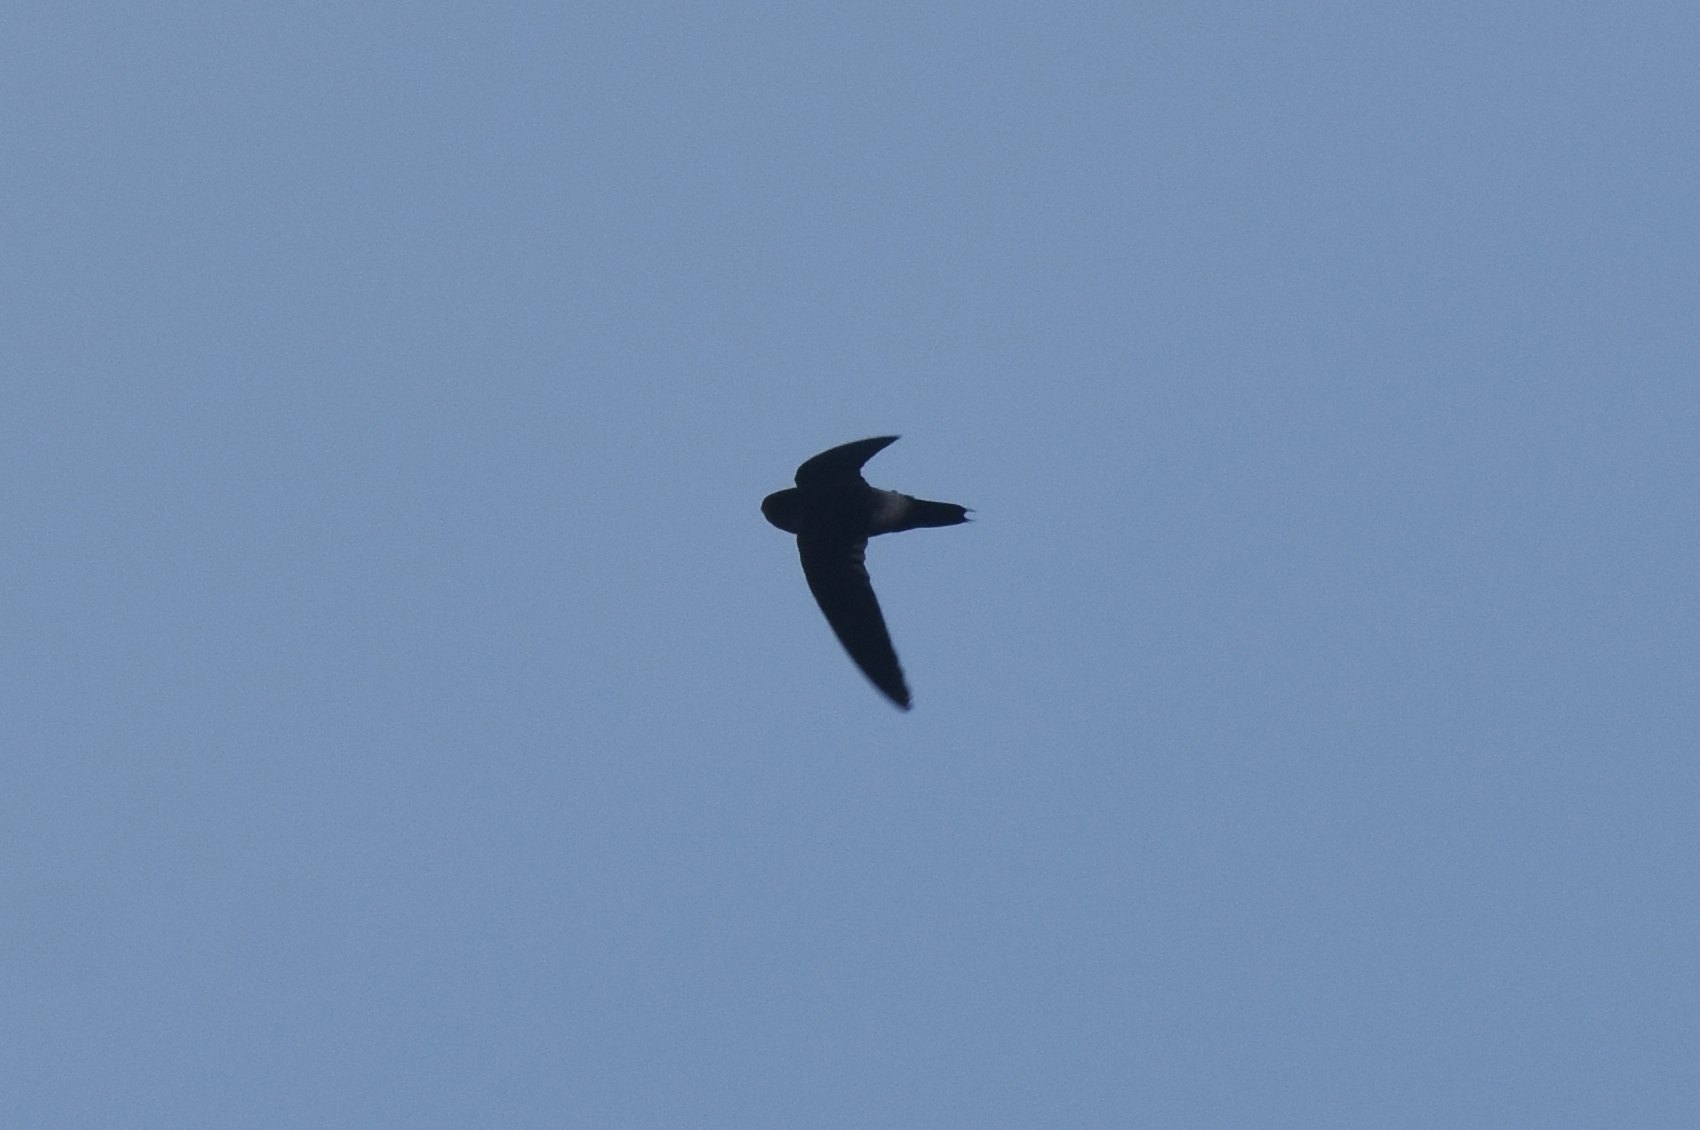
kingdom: Animalia
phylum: Chordata
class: Aves
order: Apodiformes
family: Apodidae
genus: Chaetura
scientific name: Chaetura spinicaudus
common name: Band-rumped swift
